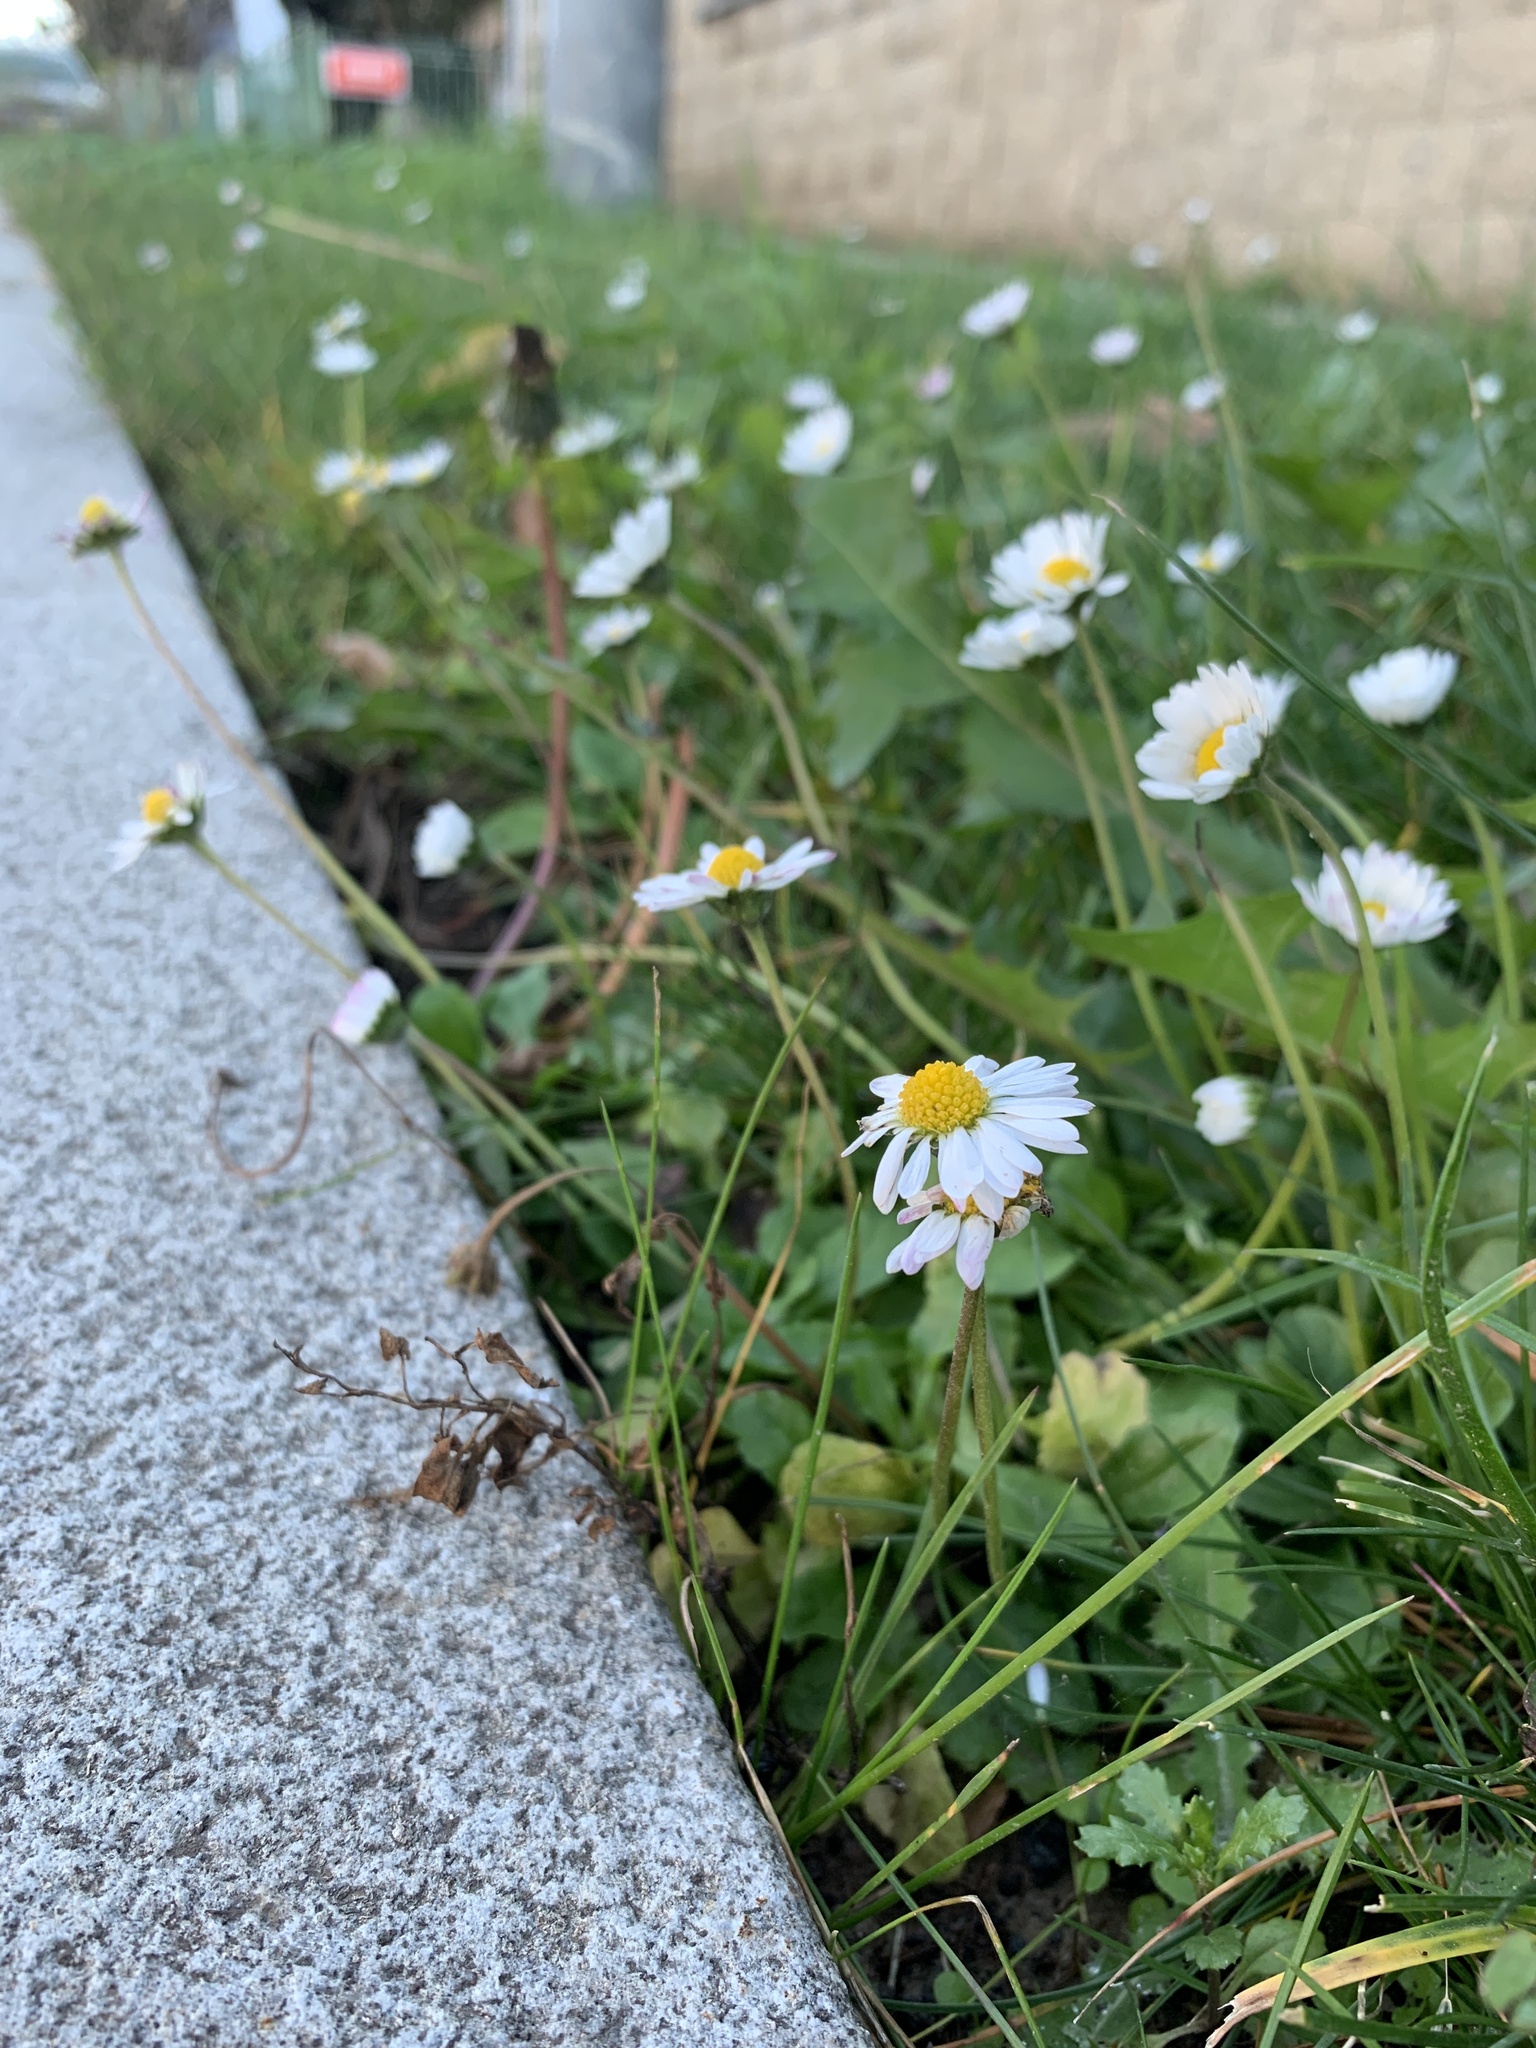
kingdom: Plantae
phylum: Tracheophyta
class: Magnoliopsida
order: Asterales
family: Asteraceae
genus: Bellis
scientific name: Bellis perennis
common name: Lawndaisy
